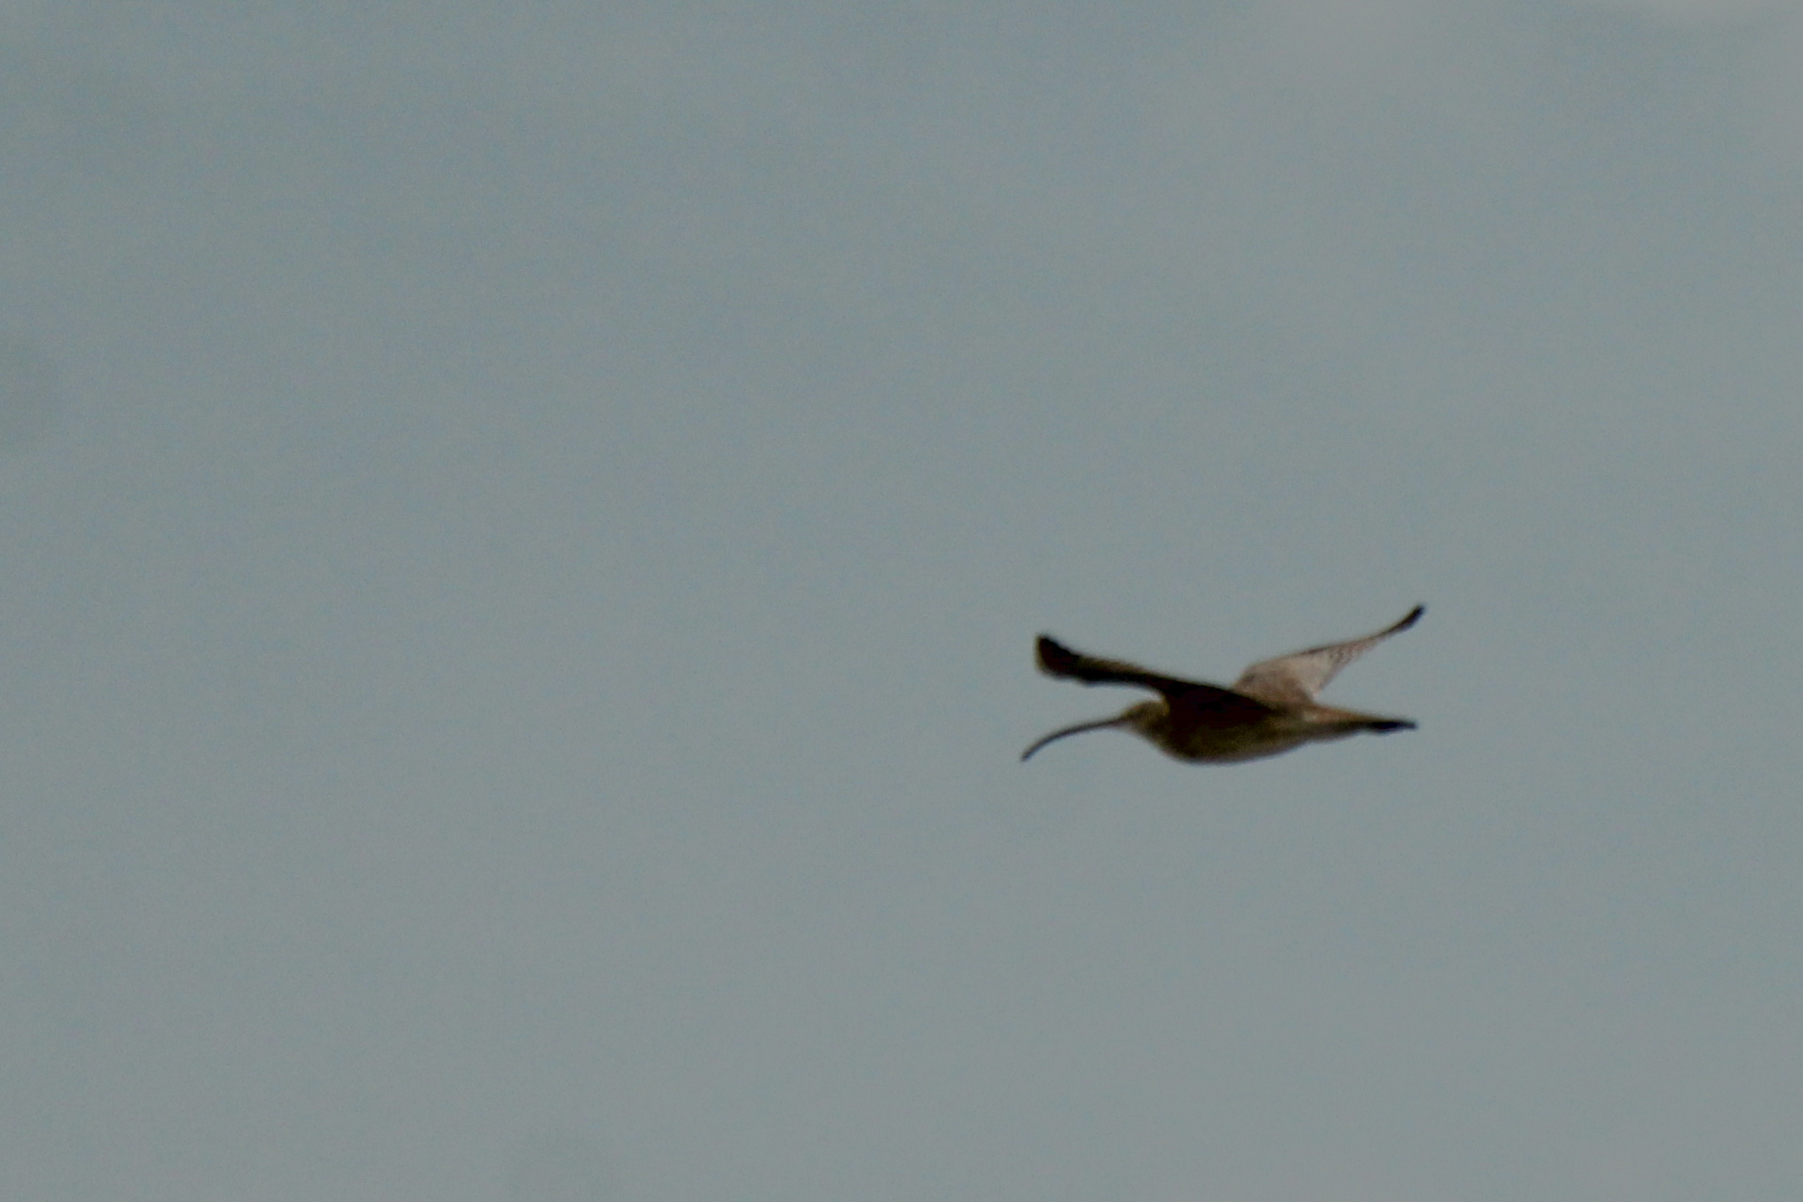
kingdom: Animalia
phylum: Chordata
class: Aves
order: Charadriiformes
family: Scolopacidae
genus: Numenius
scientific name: Numenius madagascariensis
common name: Far eastern curlew
